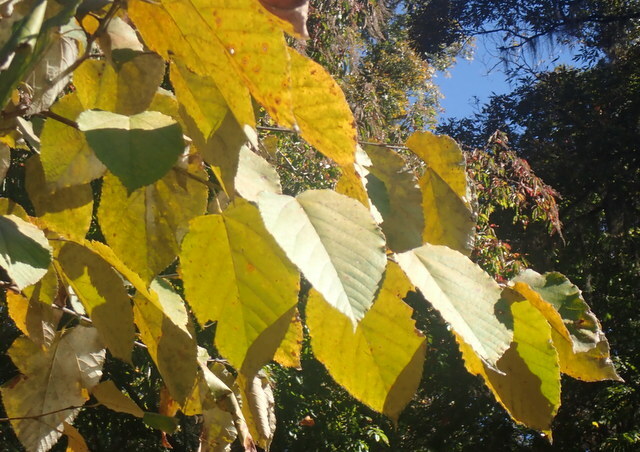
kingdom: Plantae
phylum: Tracheophyta
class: Magnoliopsida
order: Malvales
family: Malvaceae
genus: Tilia
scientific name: Tilia americana
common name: Basswood
